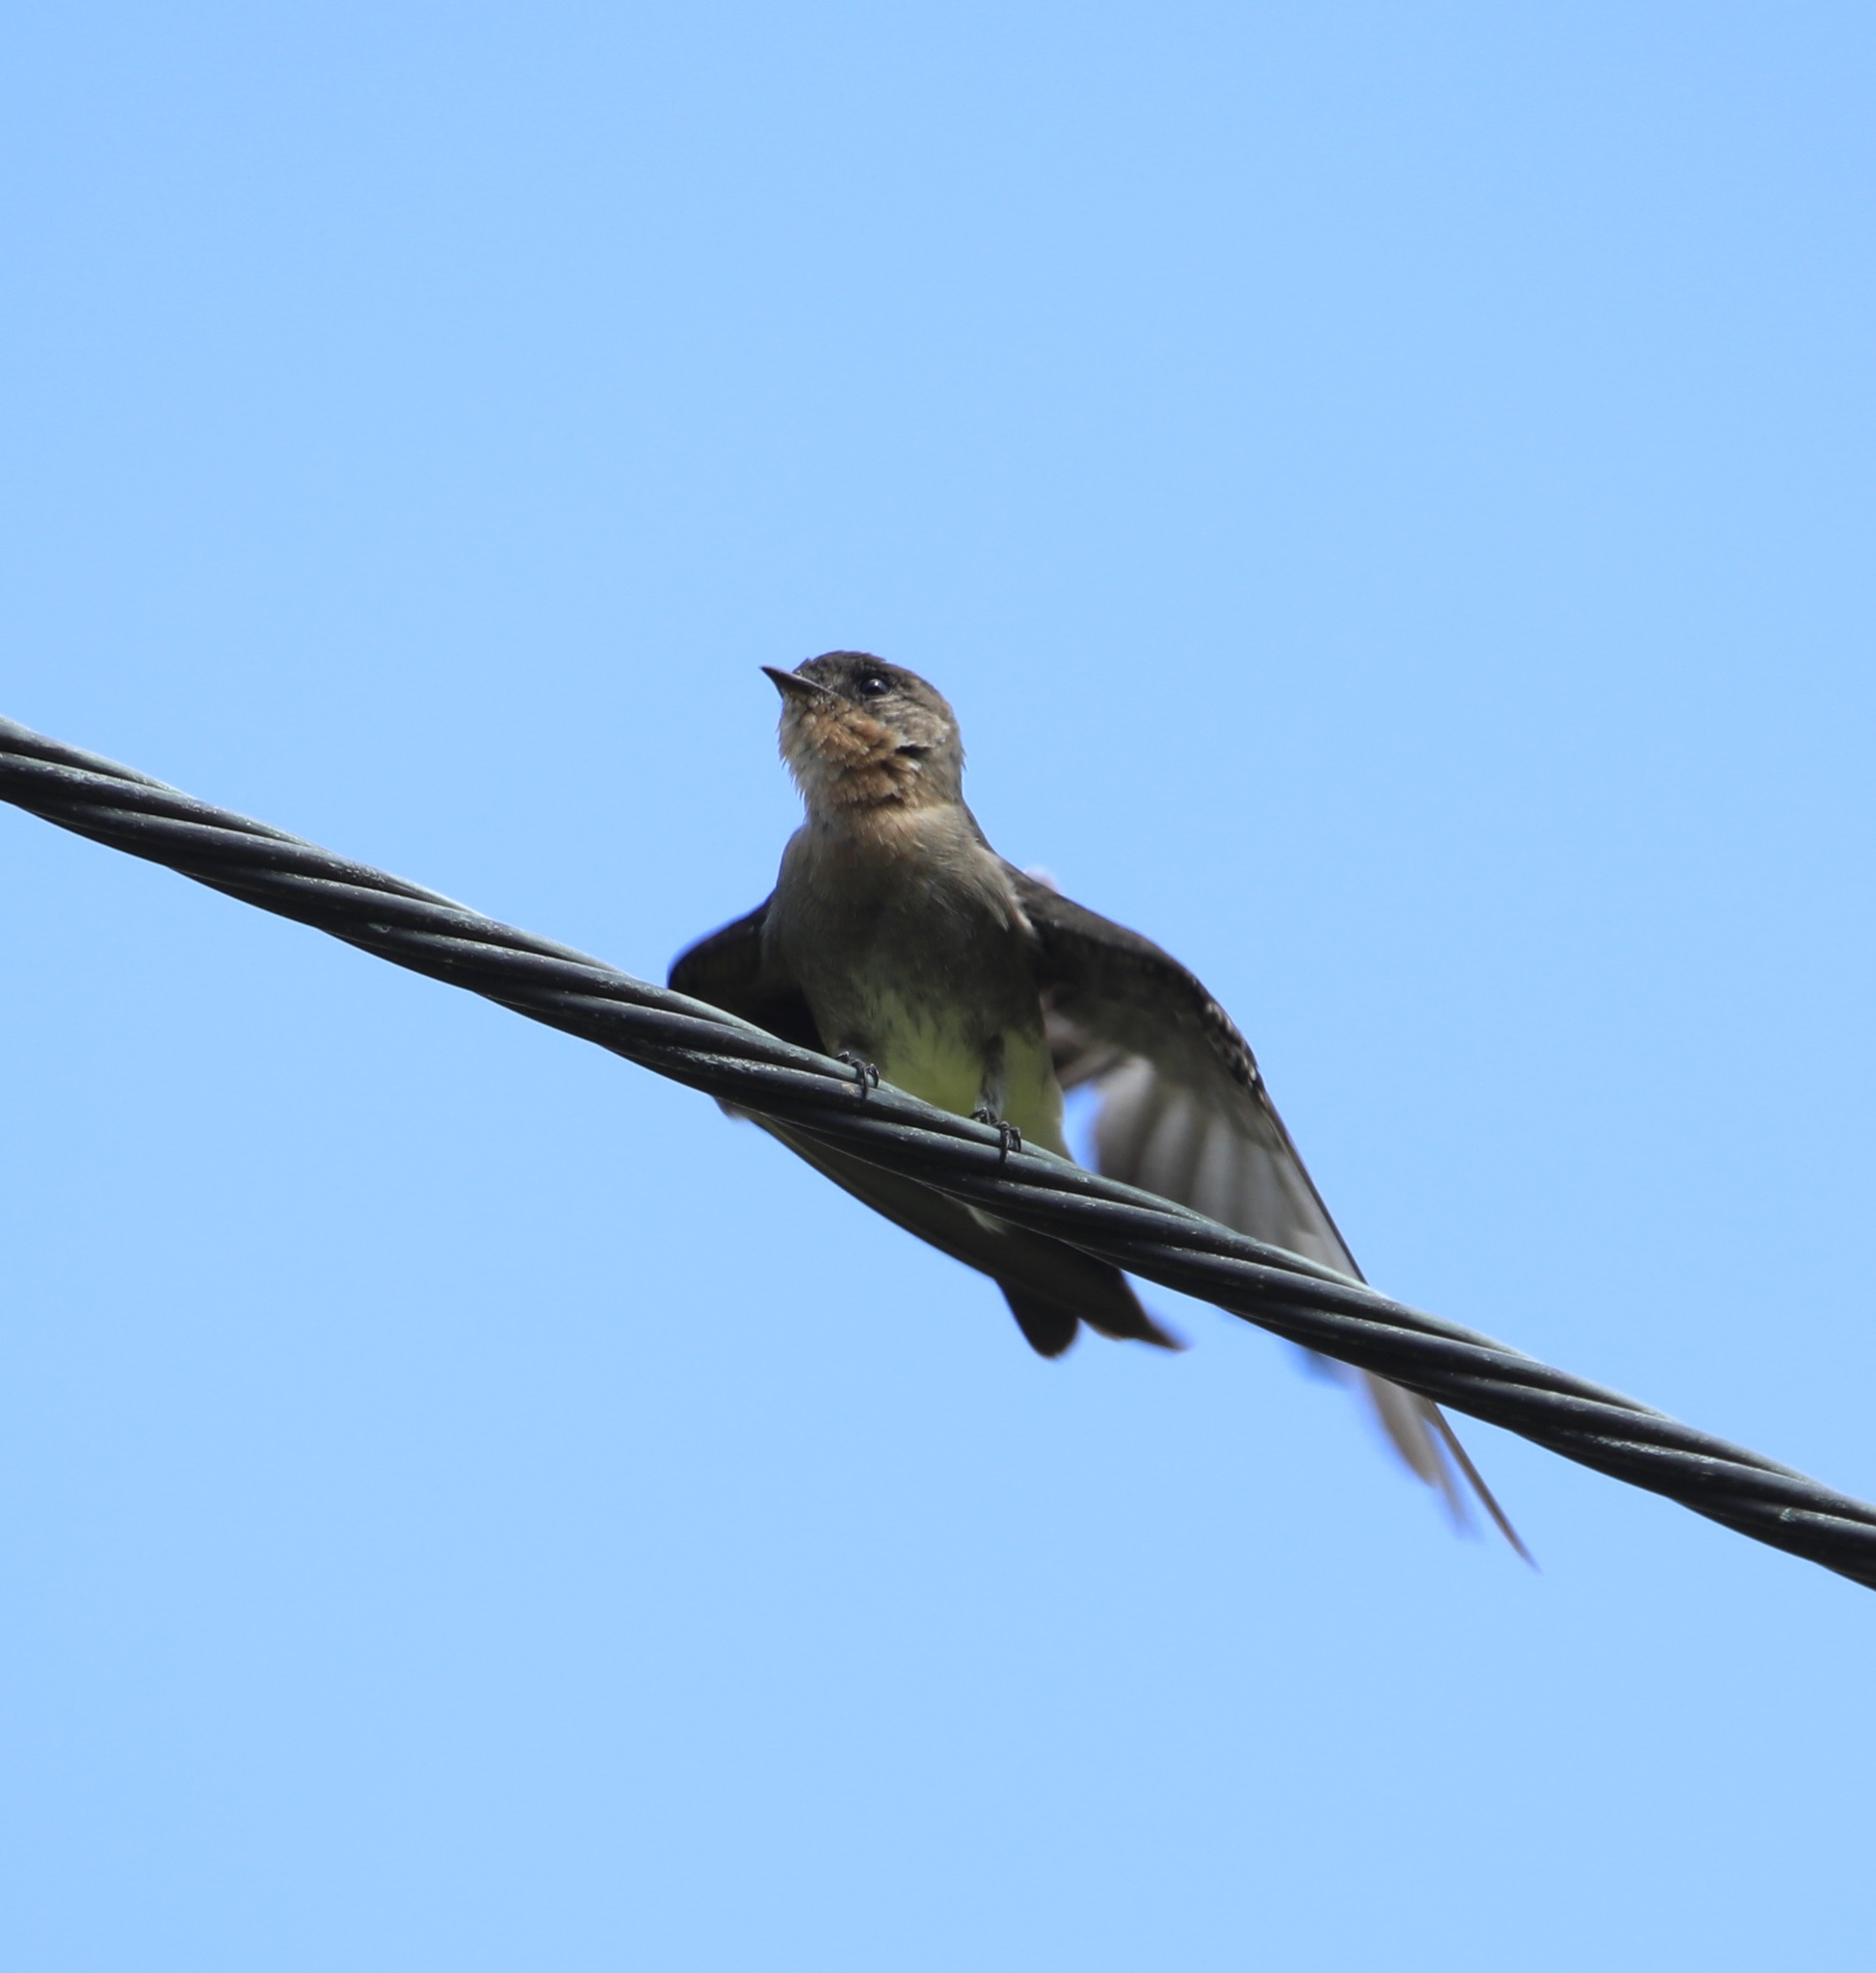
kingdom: Animalia
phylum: Chordata
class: Aves
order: Passeriformes
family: Hirundinidae
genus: Stelgidopteryx
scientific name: Stelgidopteryx ruficollis
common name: Southern rough-winged swallow
